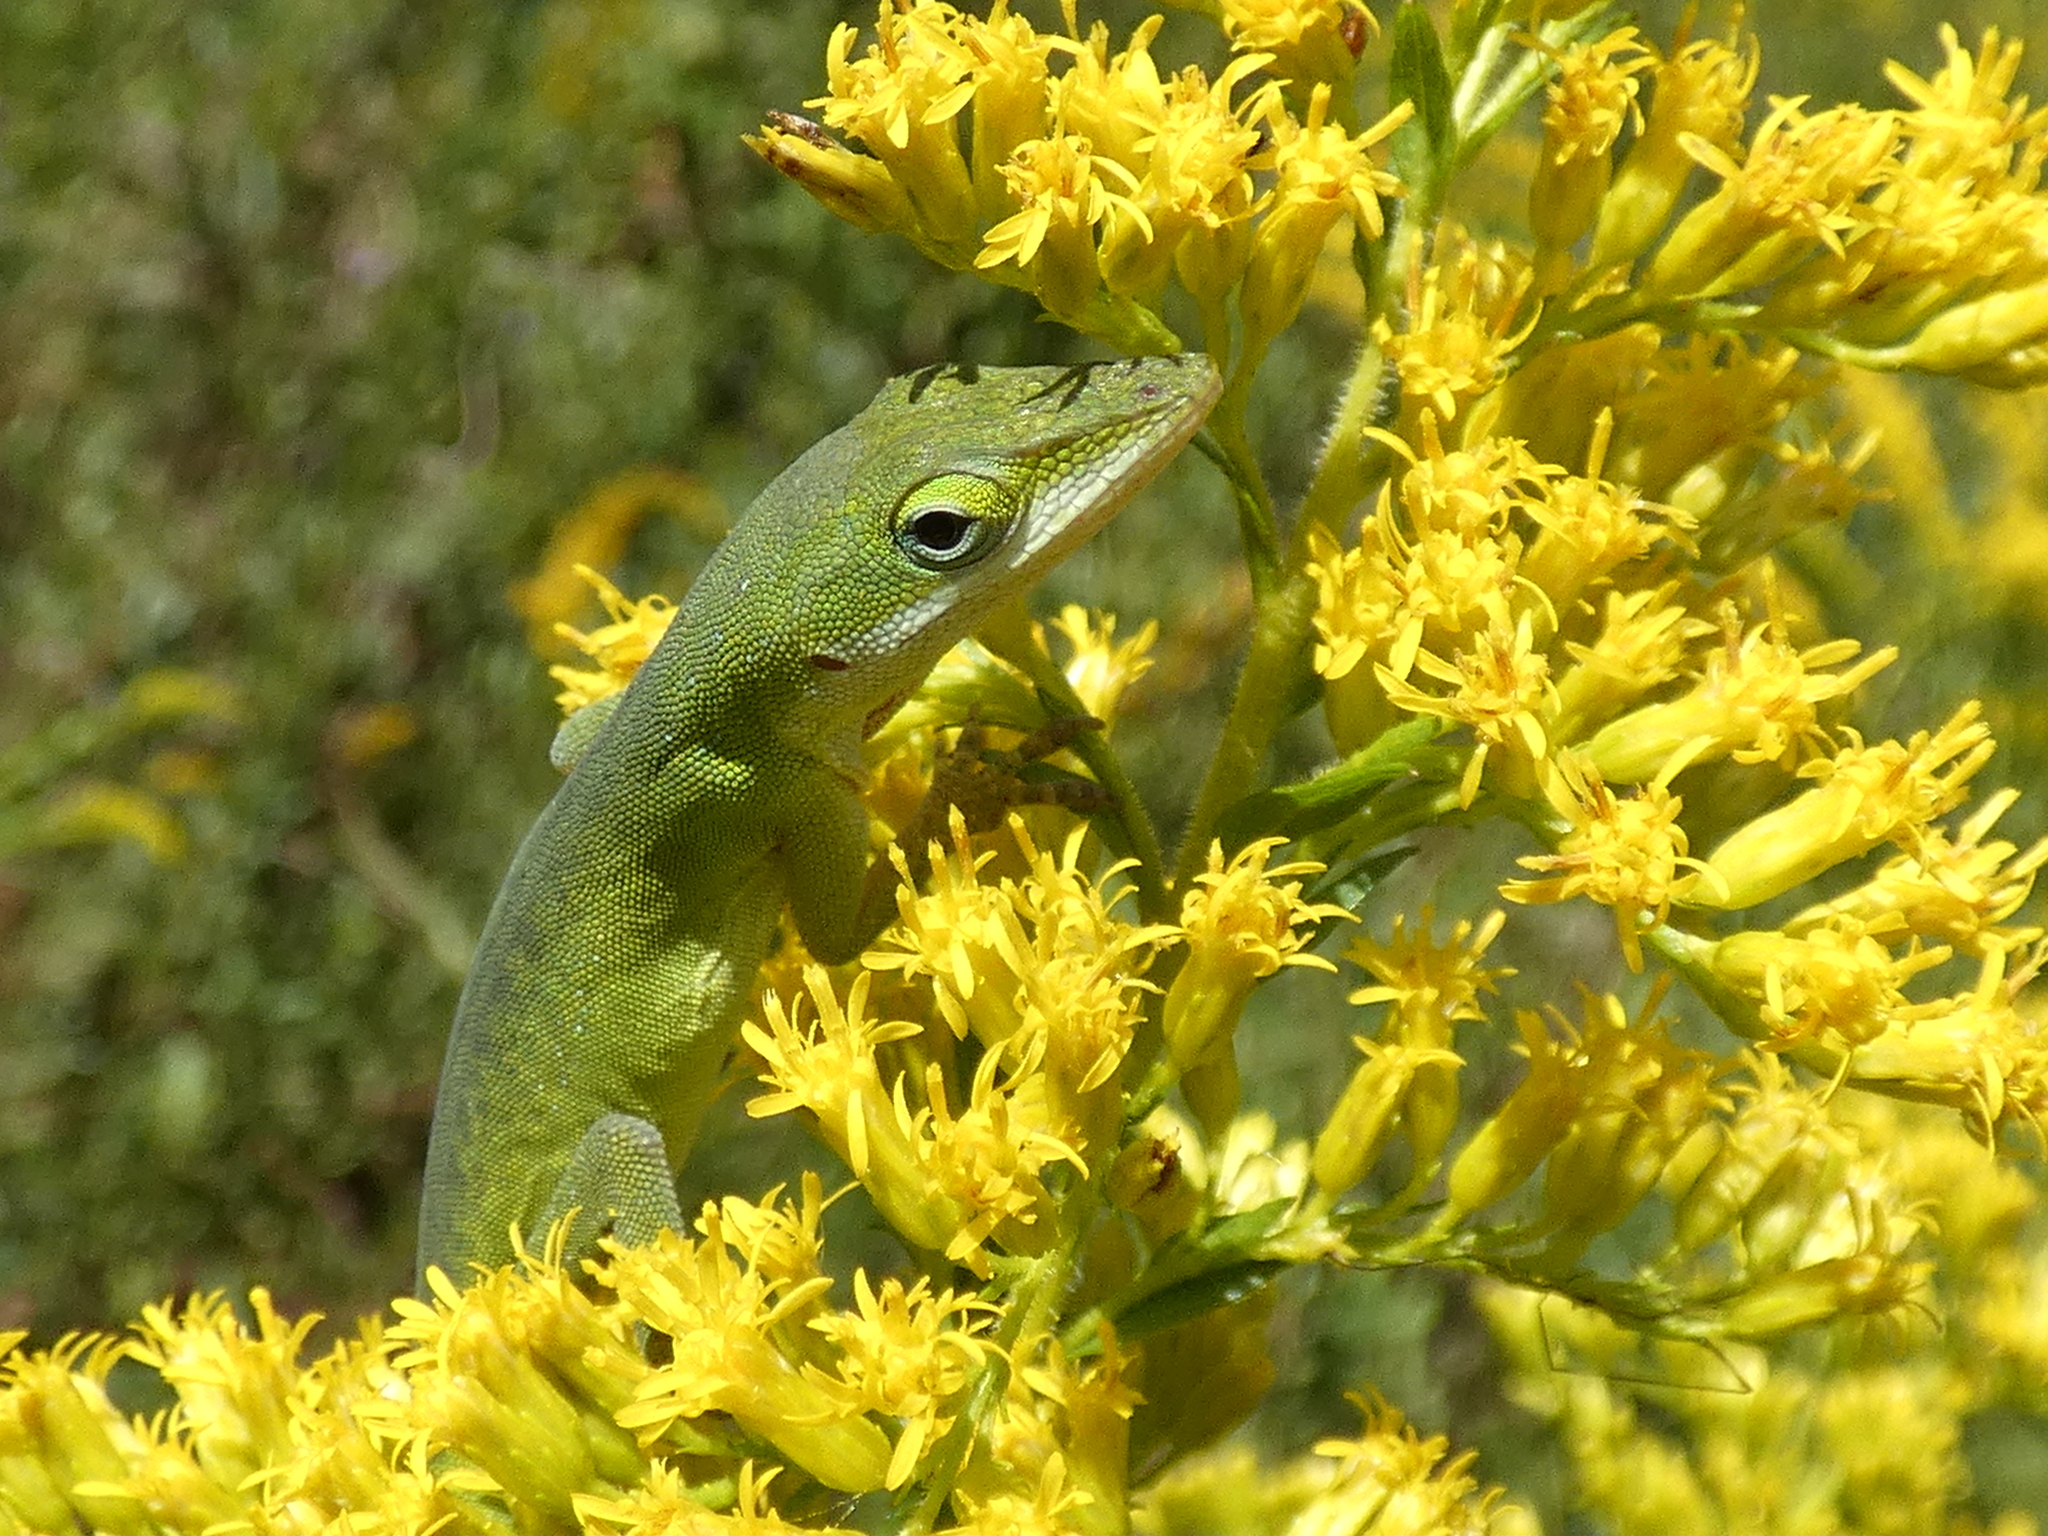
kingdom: Animalia
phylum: Chordata
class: Squamata
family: Dactyloidae
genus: Anolis
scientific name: Anolis carolinensis
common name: Green anole
